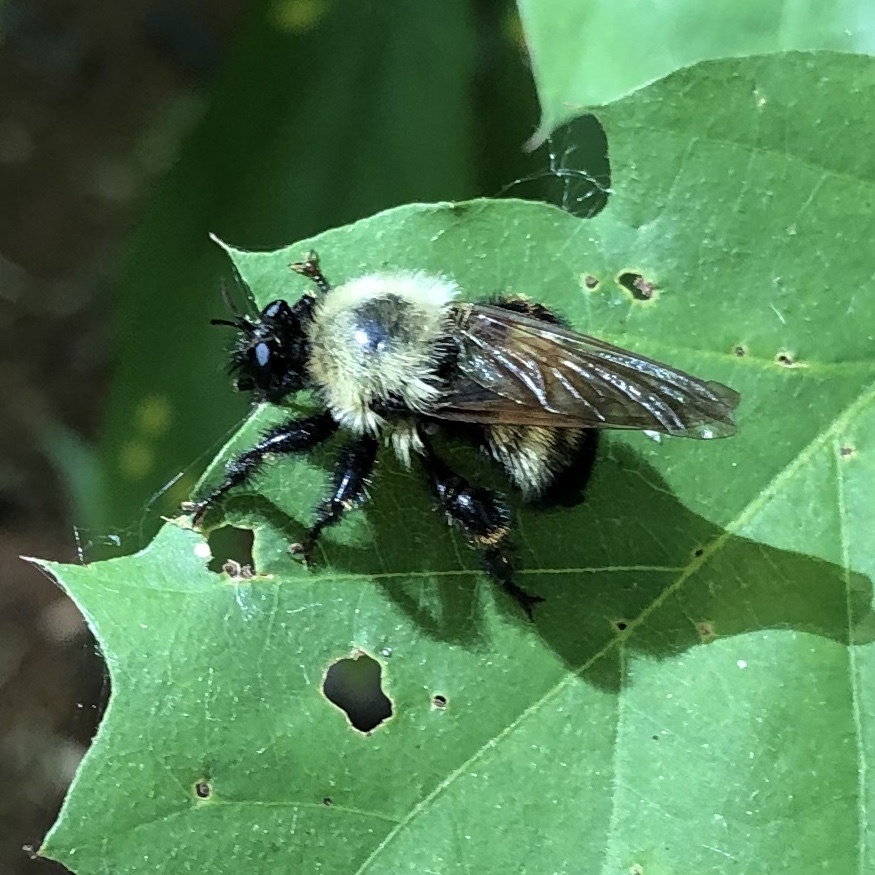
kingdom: Animalia
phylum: Arthropoda
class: Insecta
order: Diptera
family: Asilidae
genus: Laphria
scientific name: Laphria thoracica
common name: Bumble bee mimic robber fly
